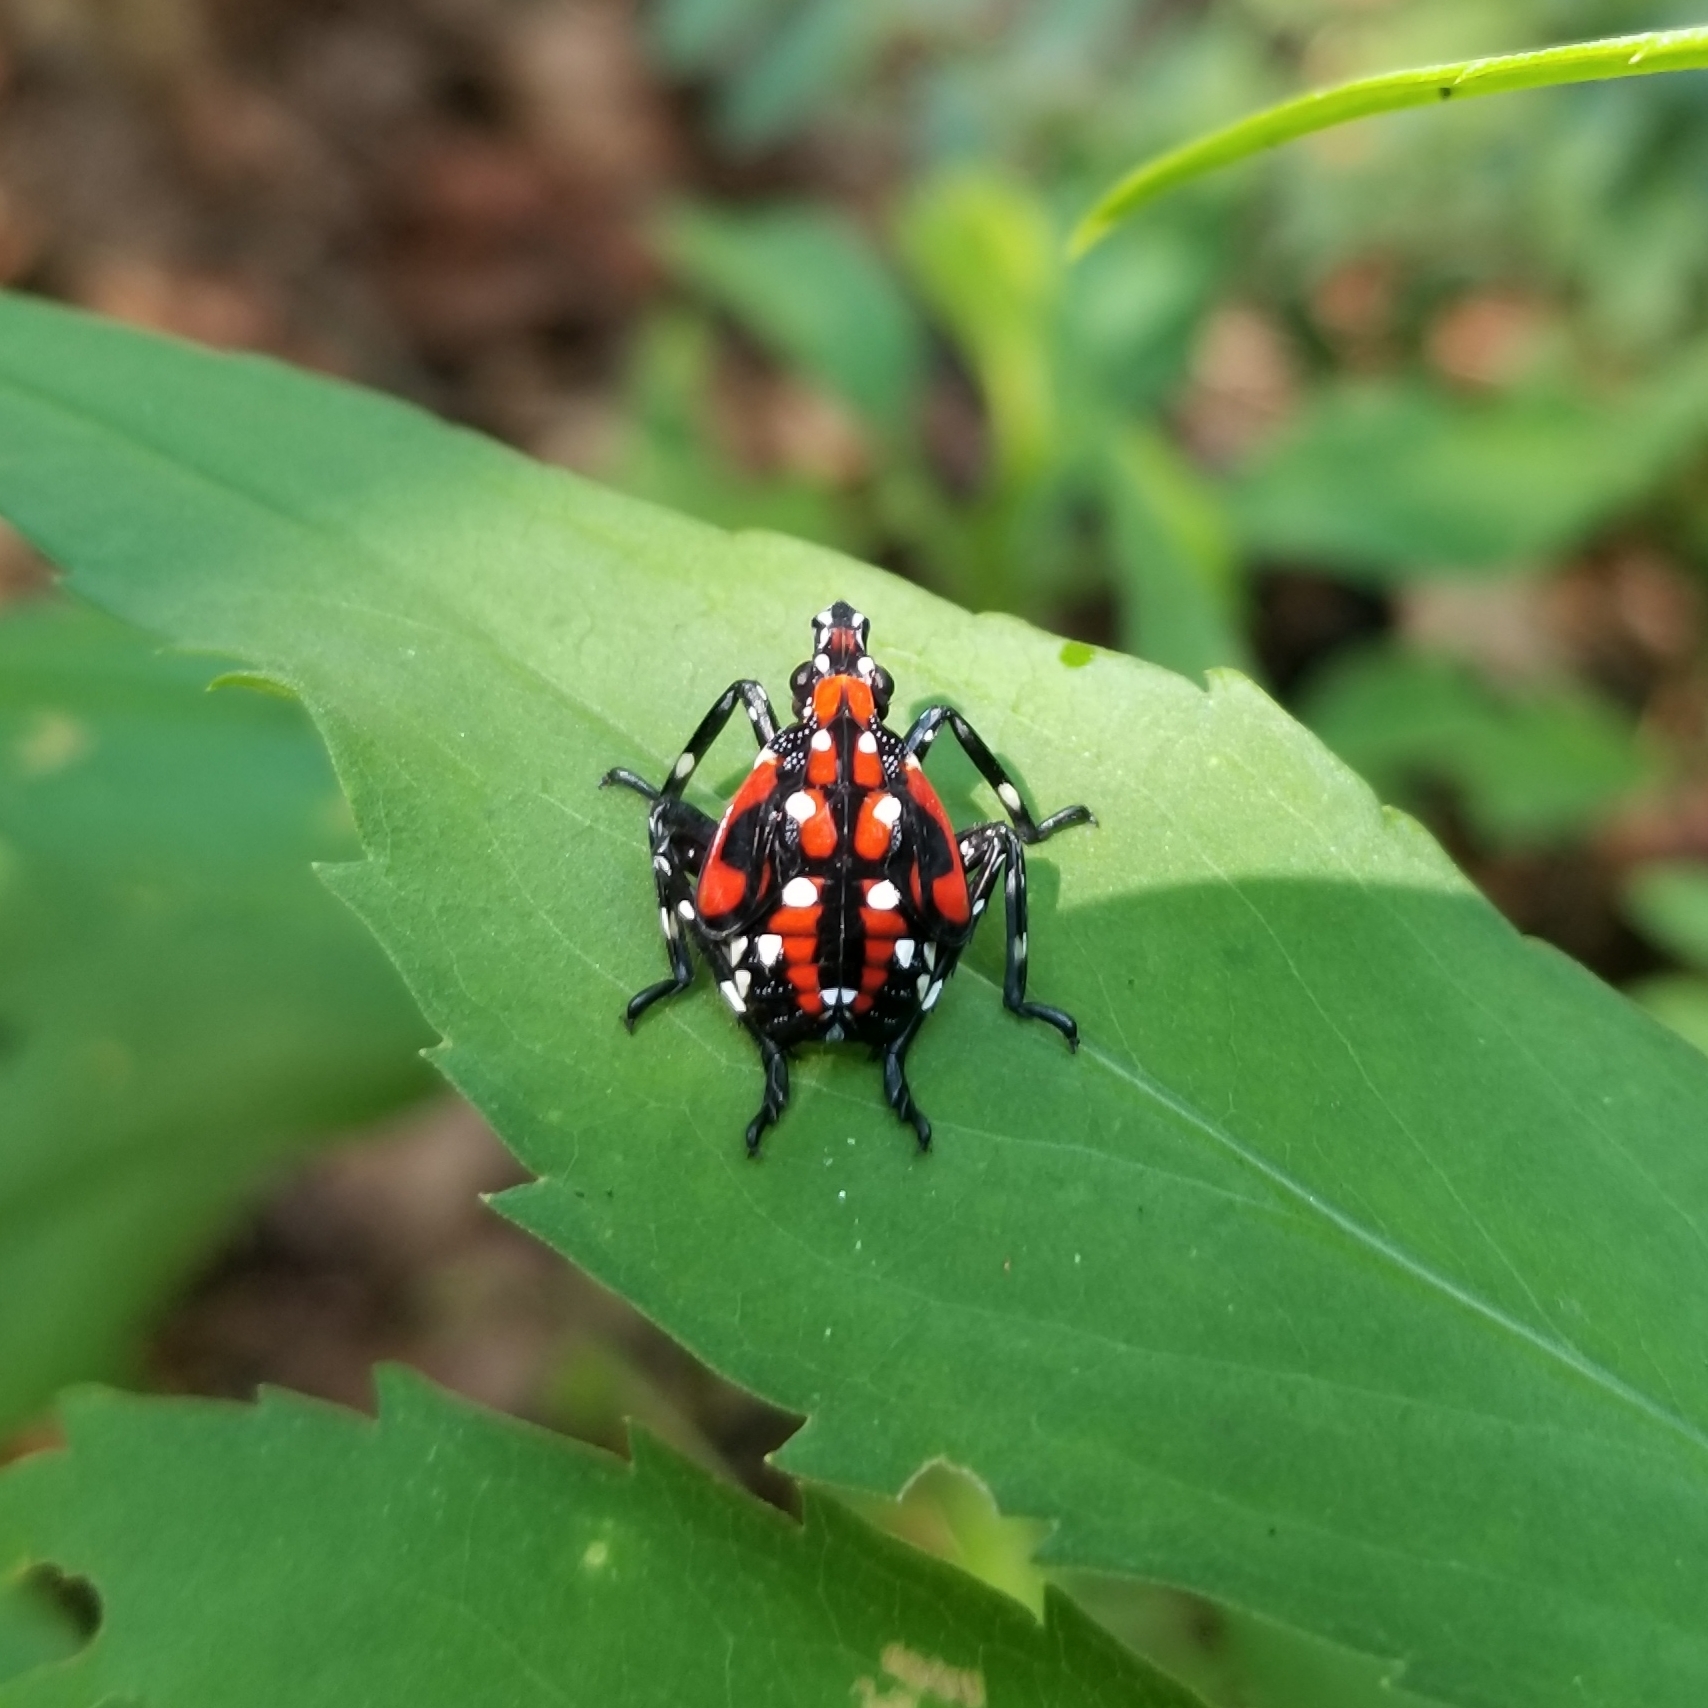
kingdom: Animalia
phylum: Arthropoda
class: Insecta
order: Hemiptera
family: Fulgoridae
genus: Lycorma
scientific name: Lycorma delicatula
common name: Spotted lanternfly
